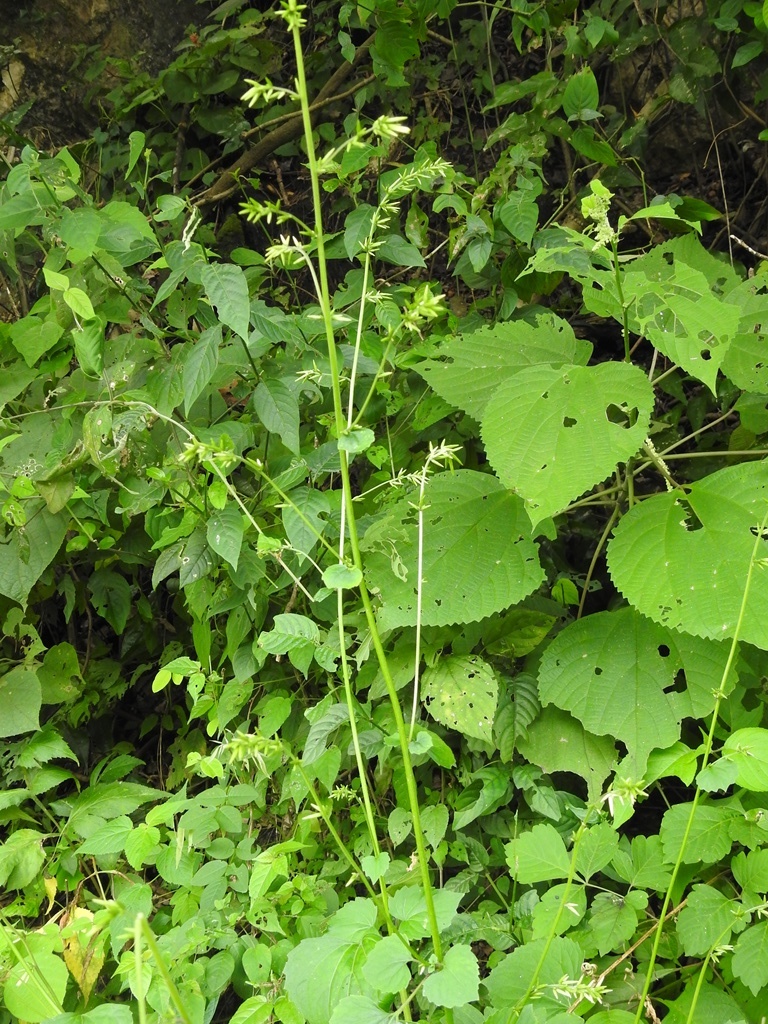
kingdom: Plantae
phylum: Tracheophyta
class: Magnoliopsida
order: Asterales
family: Asteraceae
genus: Carminatia
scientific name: Carminatia recondita
